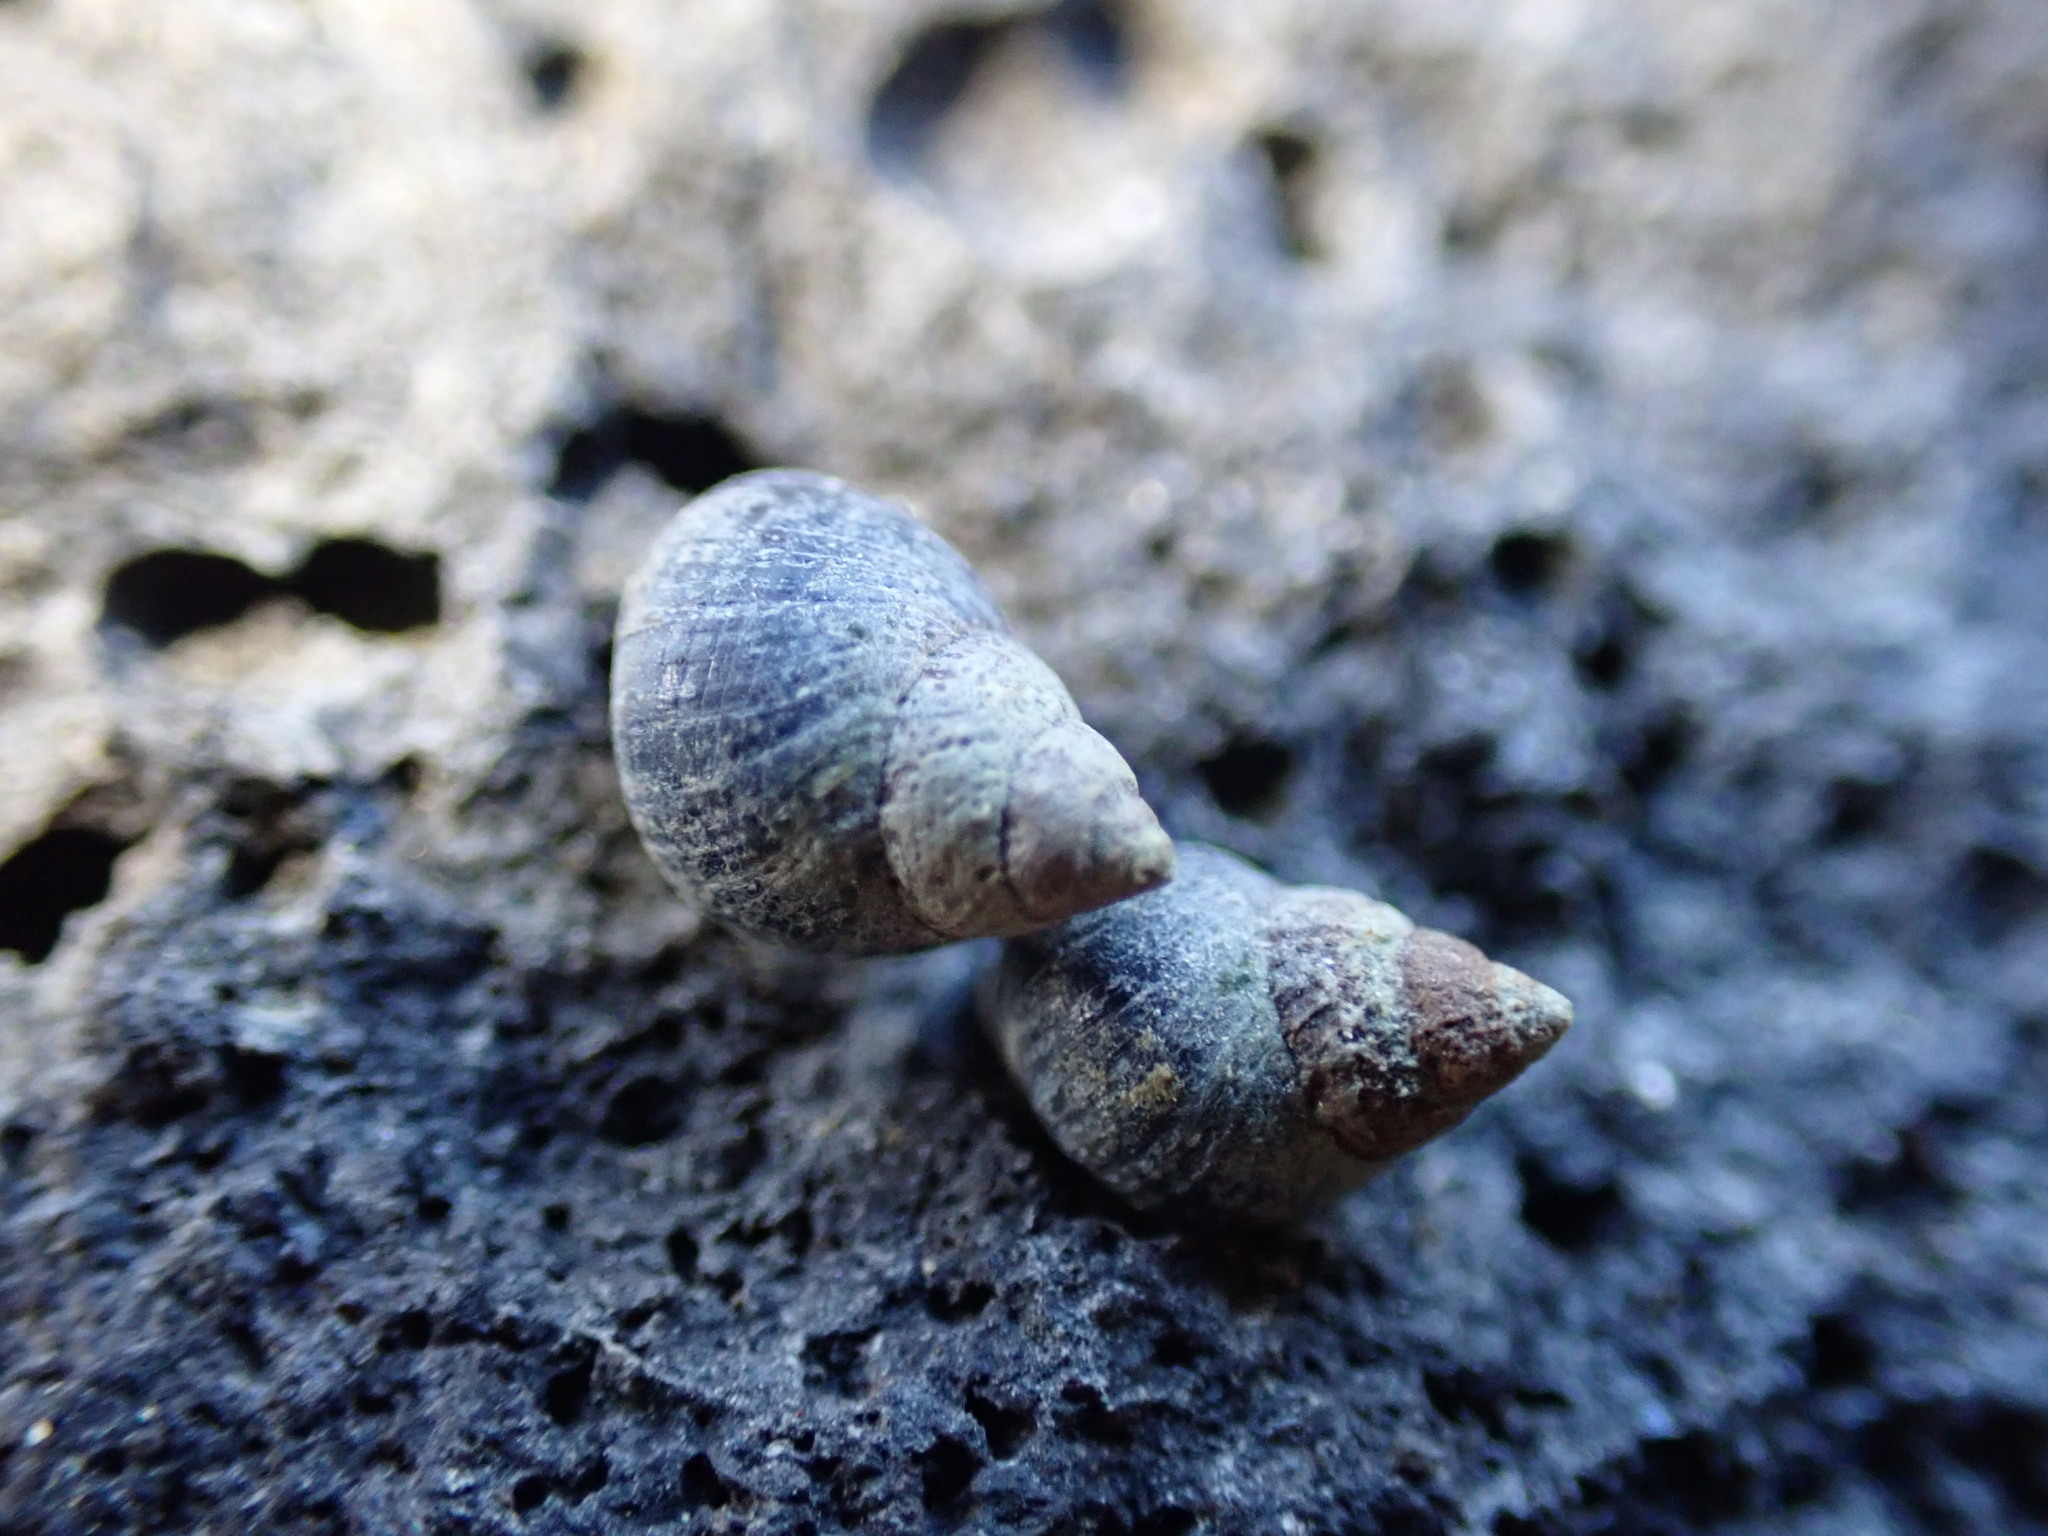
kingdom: Animalia
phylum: Mollusca
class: Gastropoda
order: Littorinimorpha
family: Littorinidae
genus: Austrolittorina
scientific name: Austrolittorina antipodum
